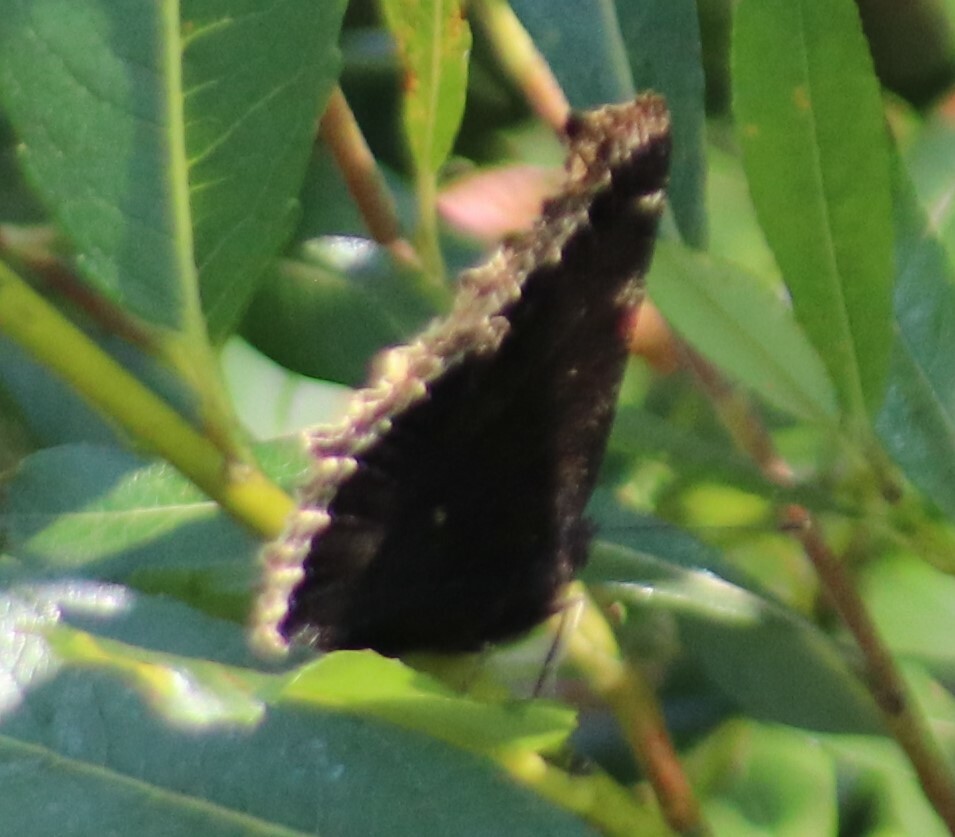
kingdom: Animalia
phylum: Arthropoda
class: Insecta
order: Lepidoptera
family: Nymphalidae
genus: Nymphalis
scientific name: Nymphalis antiopa
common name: Camberwell beauty
